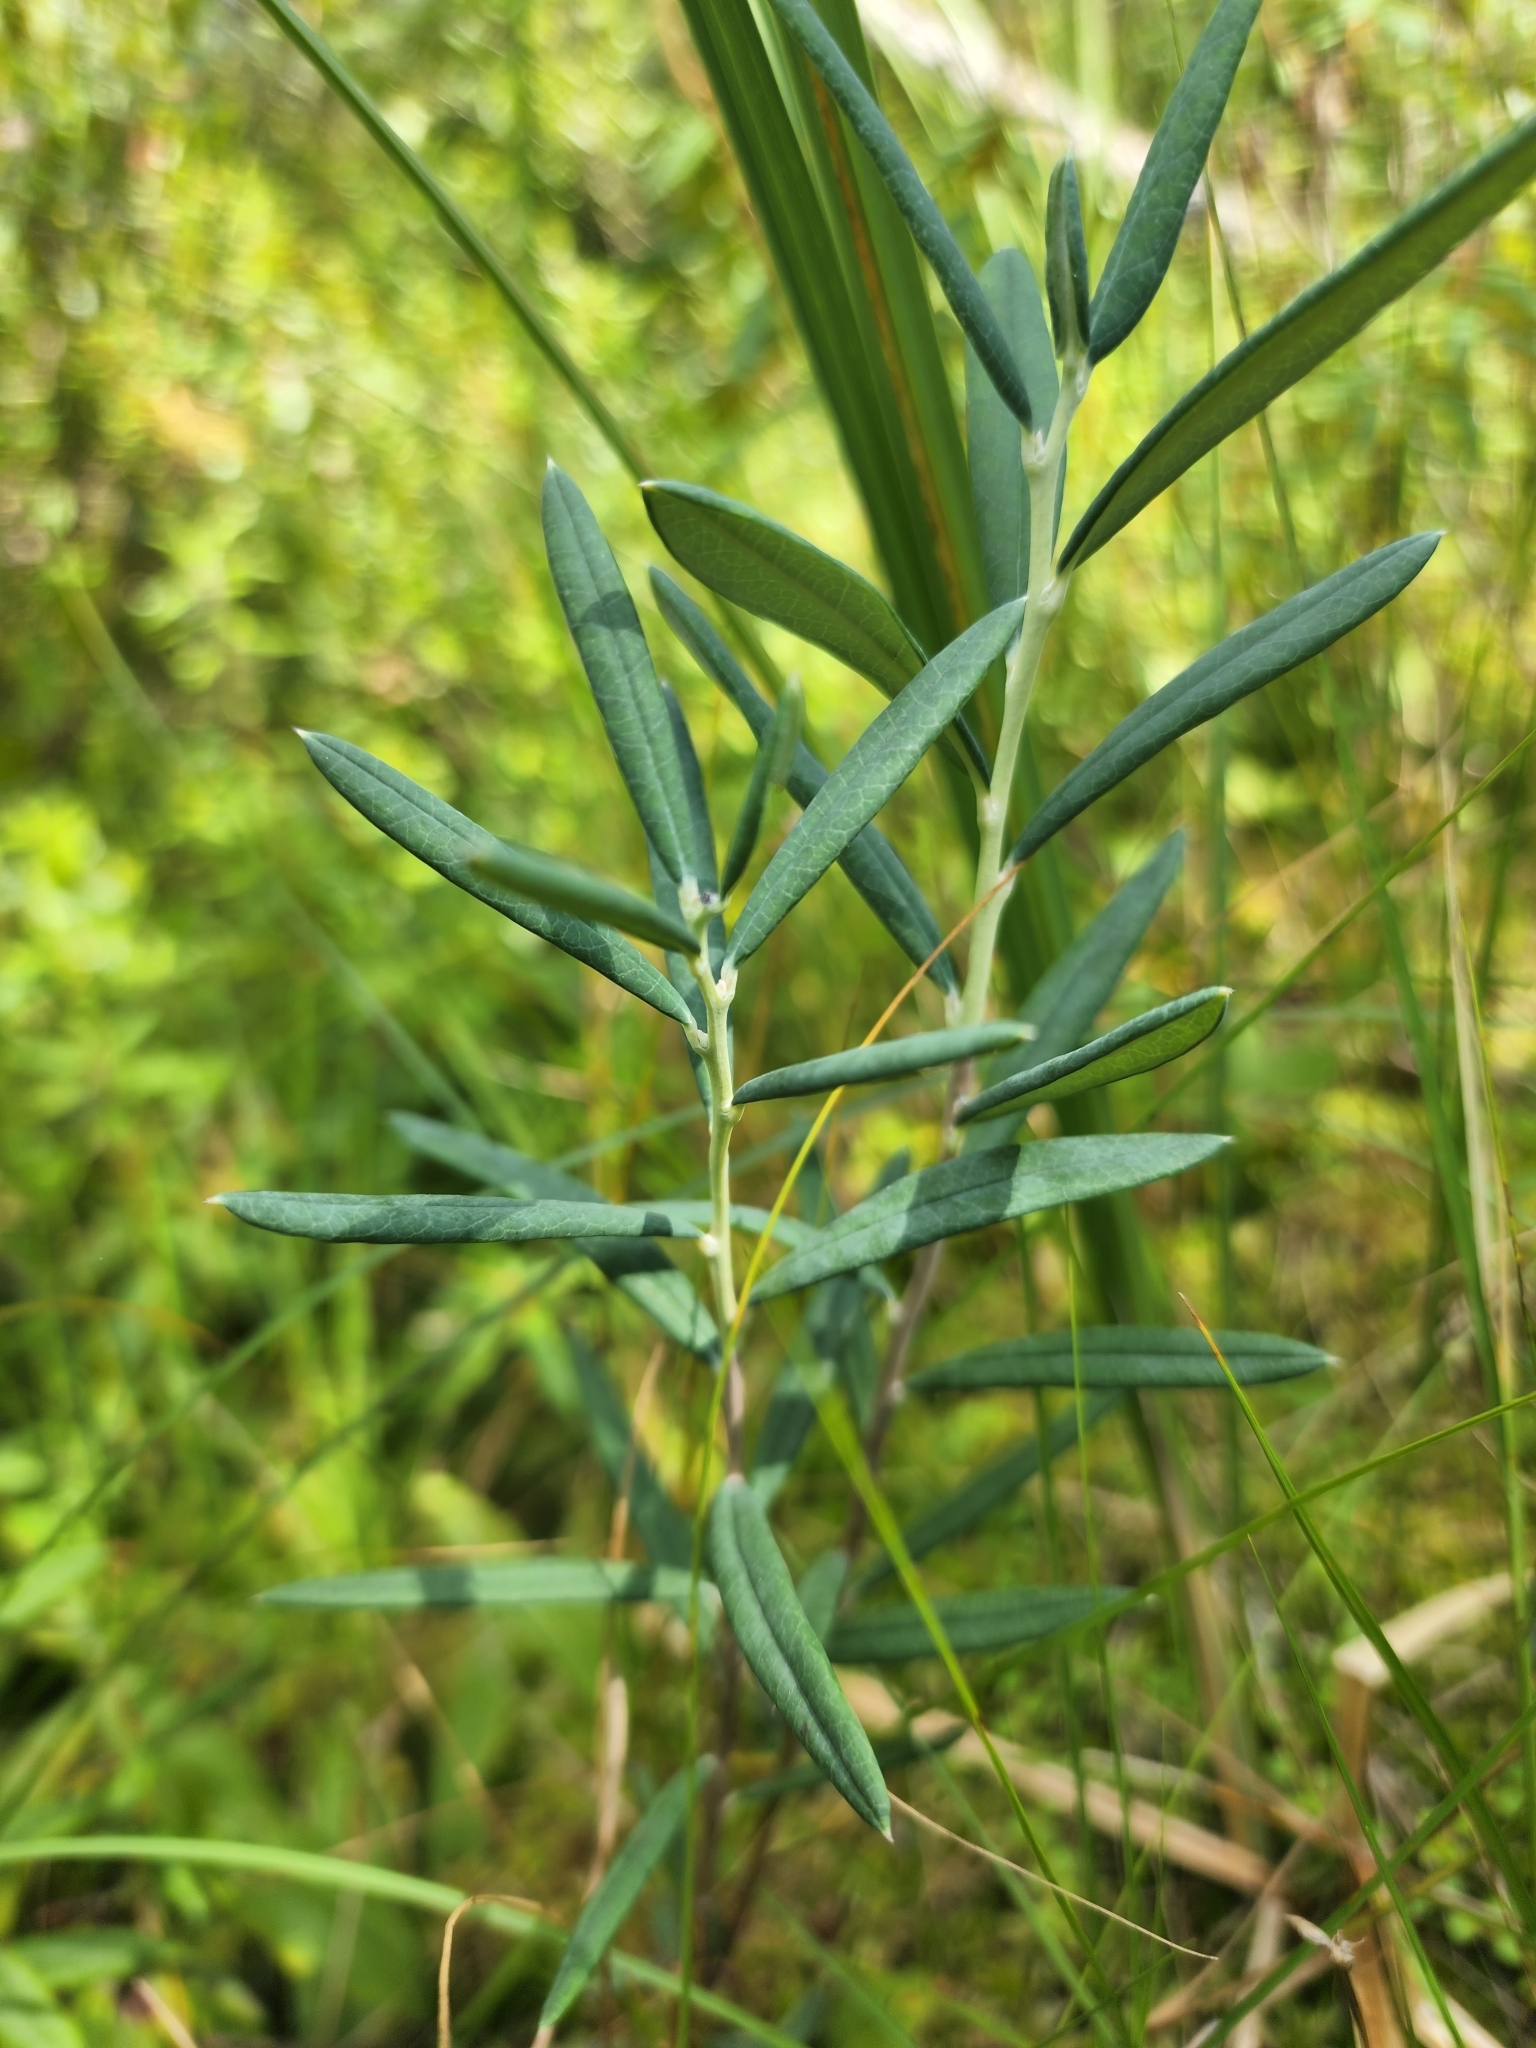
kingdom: Plantae
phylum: Tracheophyta
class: Magnoliopsida
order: Ericales
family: Ericaceae
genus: Andromeda
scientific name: Andromeda polifolia
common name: Bog-rosemary
